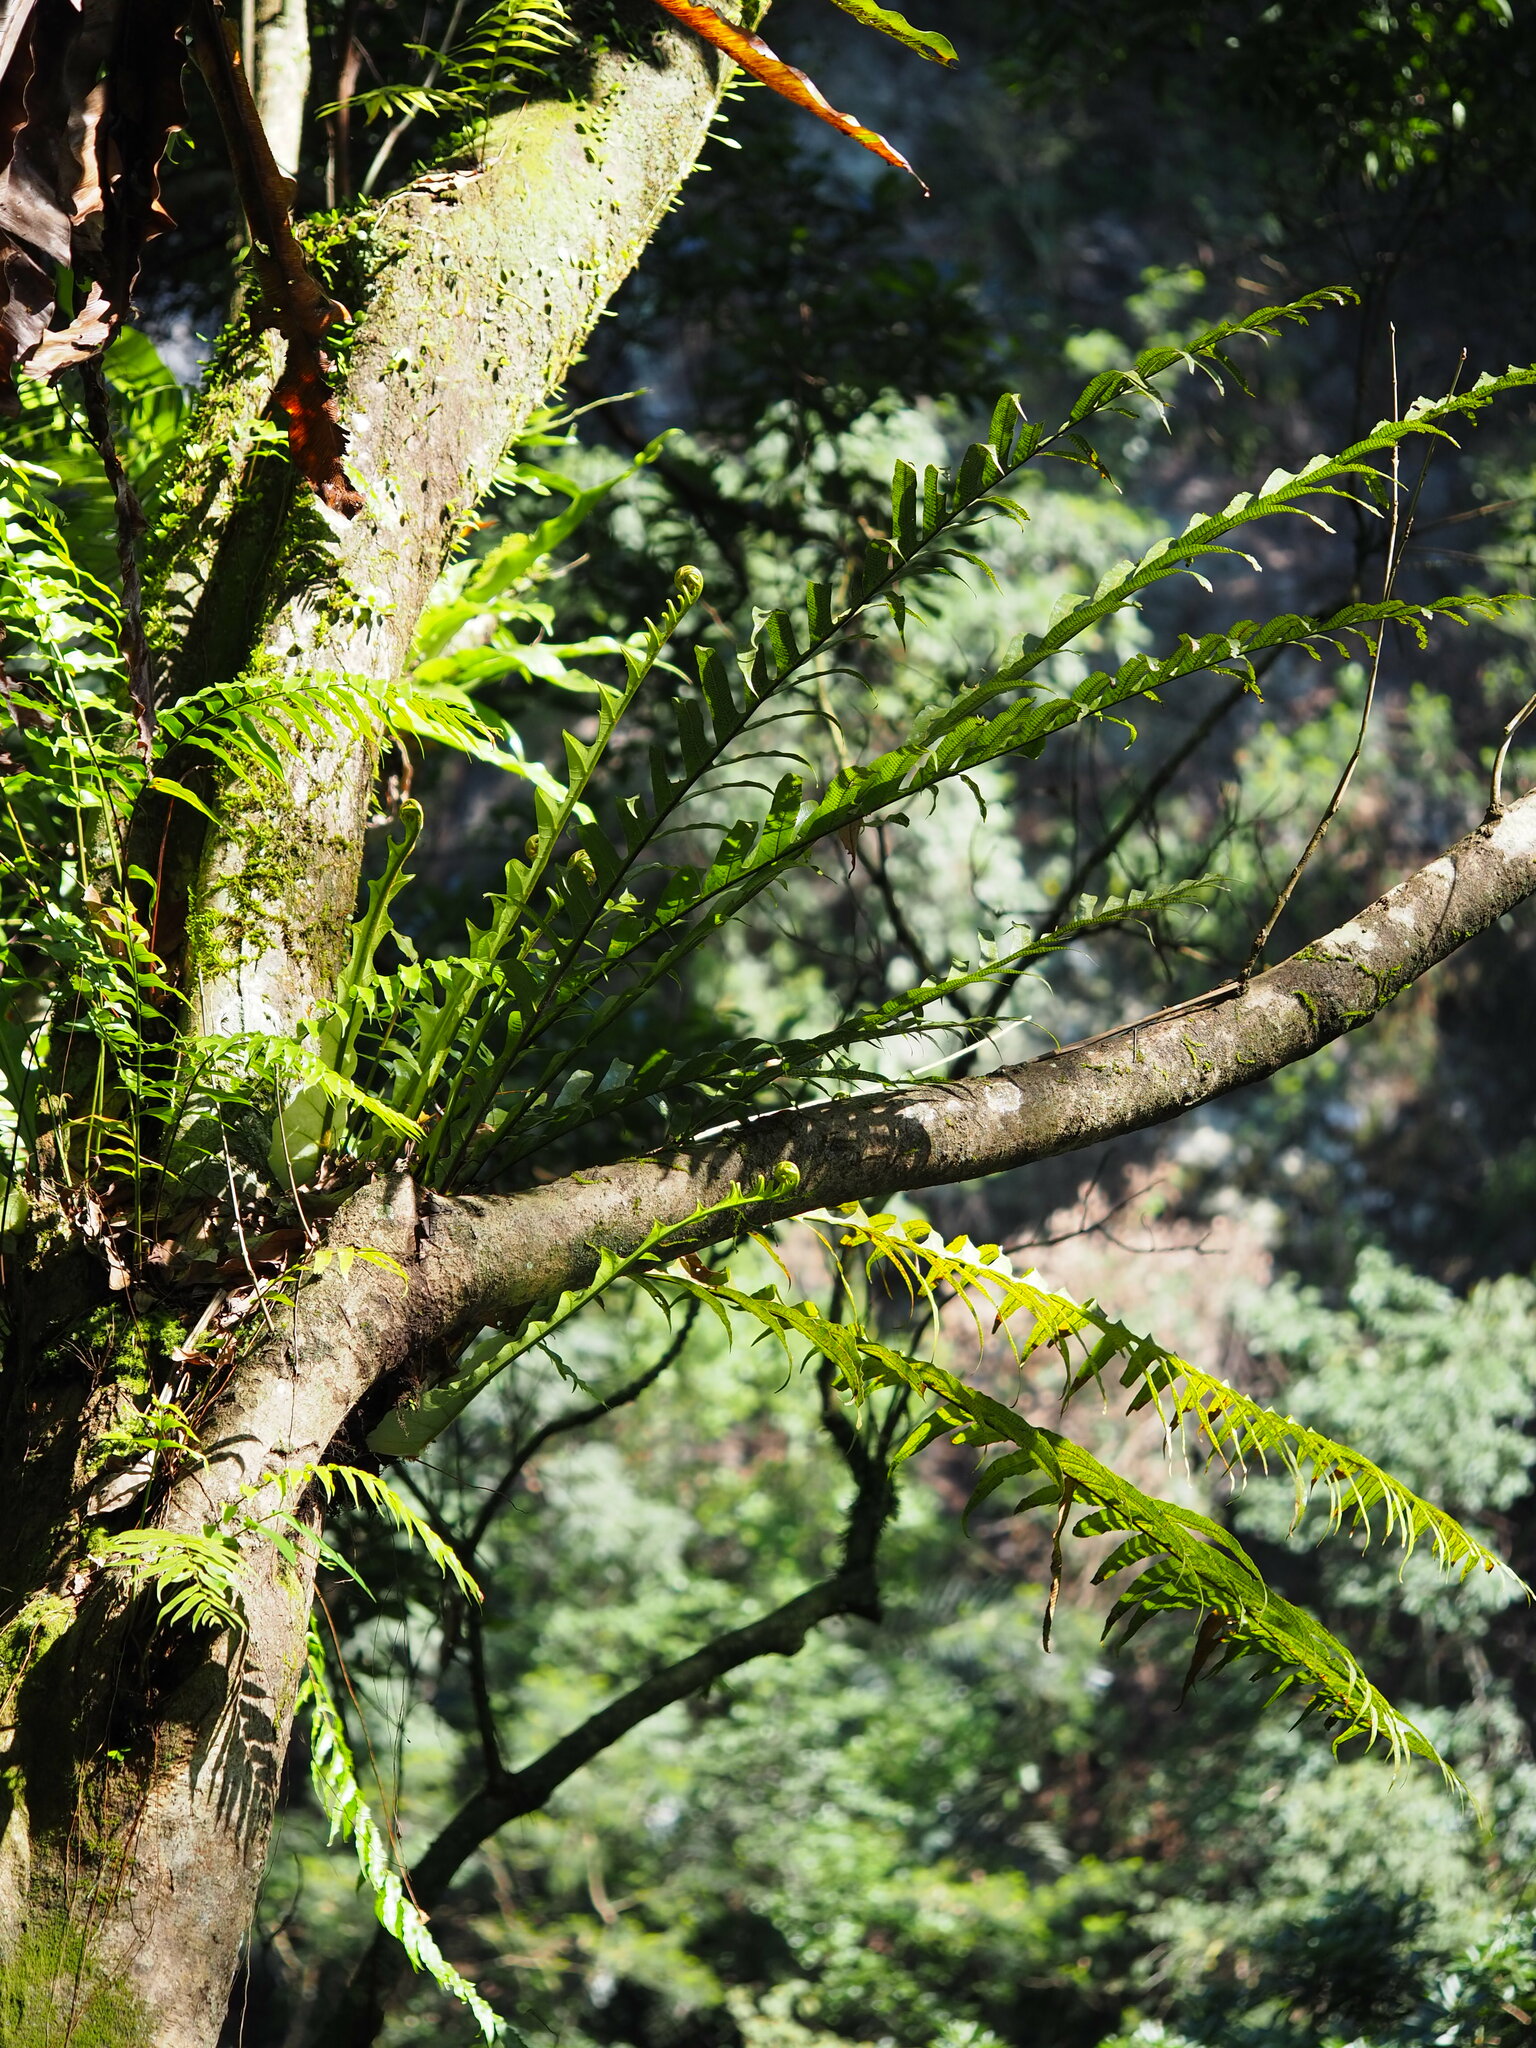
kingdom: Plantae
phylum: Tracheophyta
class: Polypodiopsida
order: Polypodiales
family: Polypodiaceae
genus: Drynaria
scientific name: Drynaria coronans
